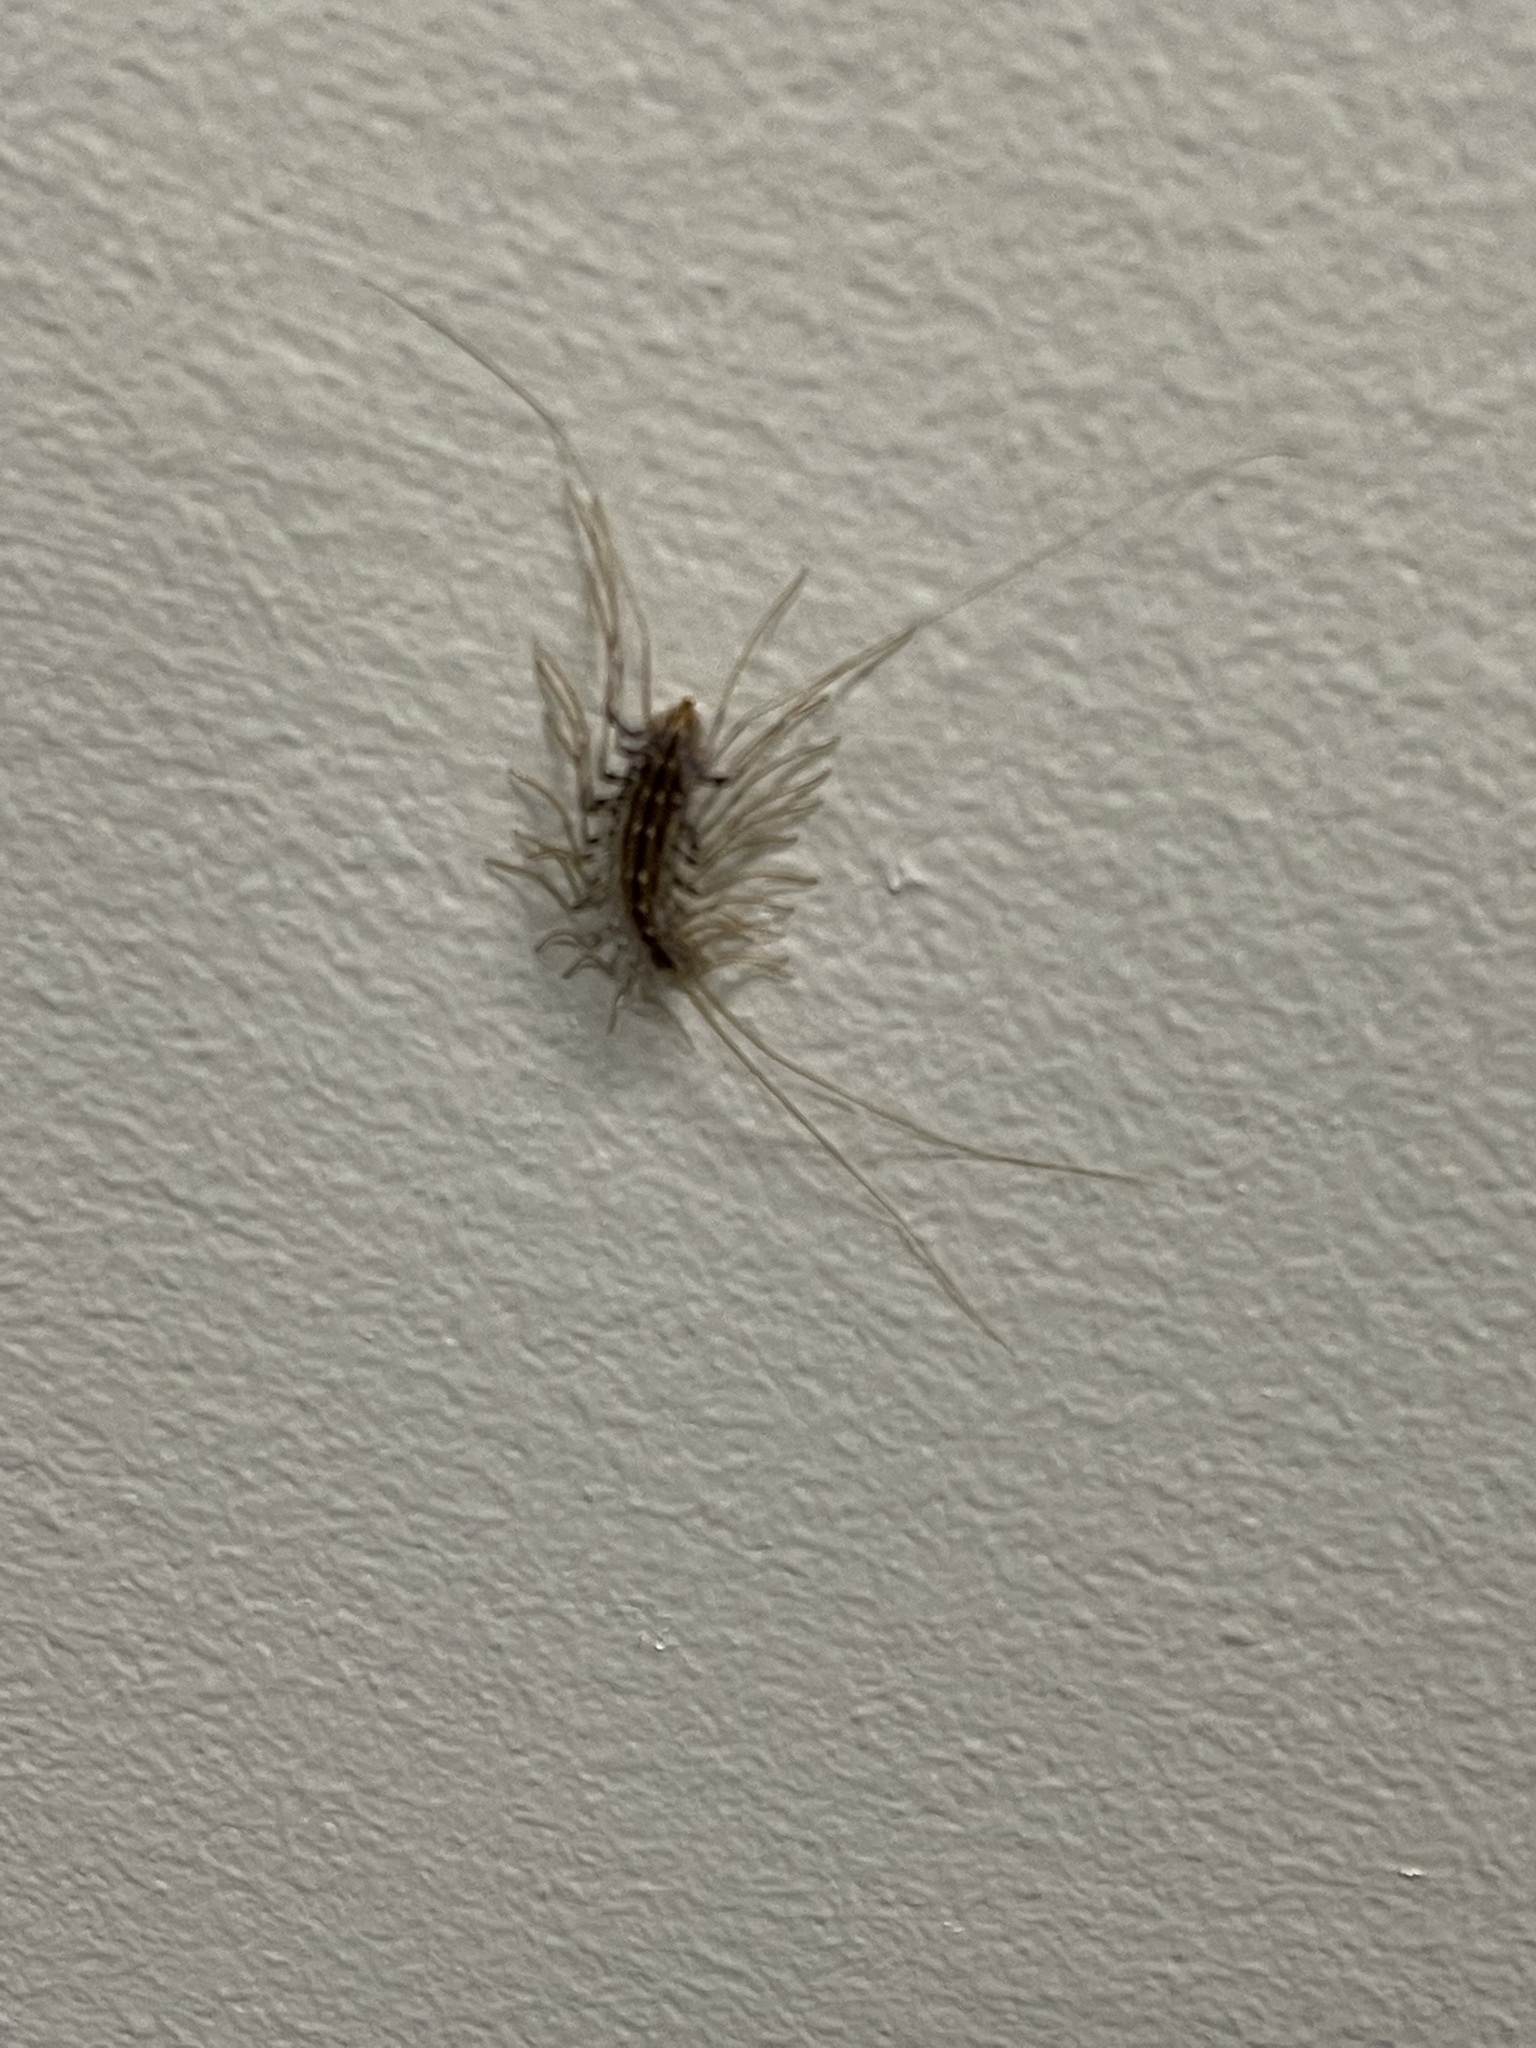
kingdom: Animalia
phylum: Arthropoda
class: Chilopoda
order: Scutigeromorpha
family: Scutigeridae
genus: Scutigera
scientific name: Scutigera coleoptrata
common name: House centipede
